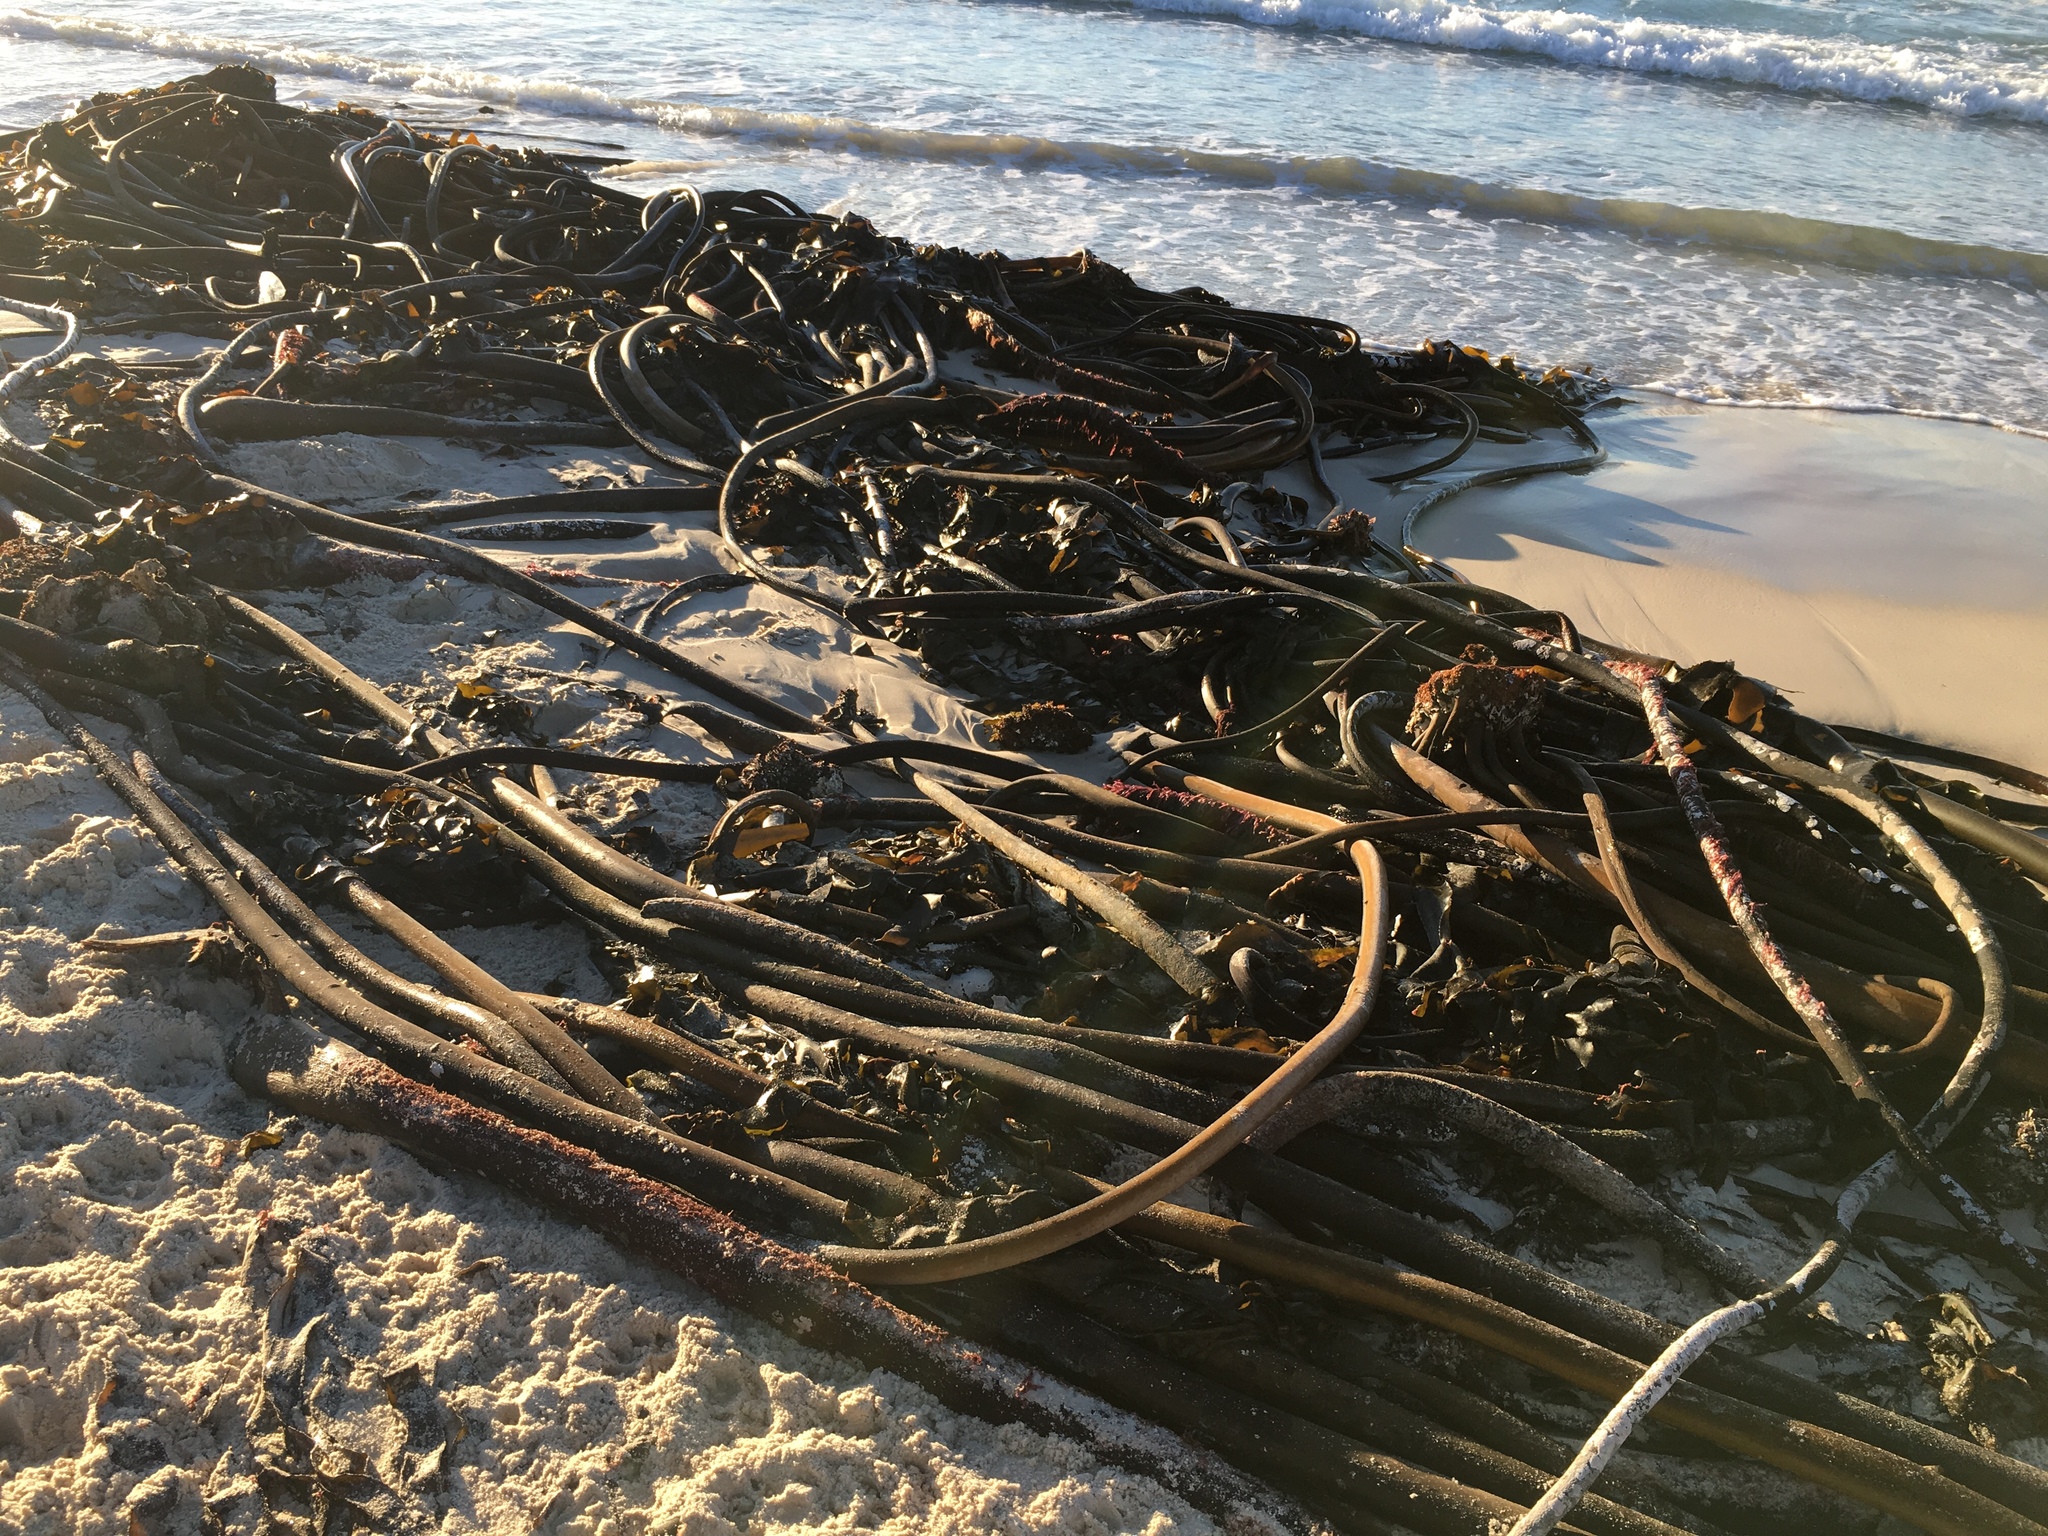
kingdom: Chromista
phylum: Ochrophyta
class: Phaeophyceae
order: Laminariales
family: Lessoniaceae
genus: Ecklonia
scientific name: Ecklonia
